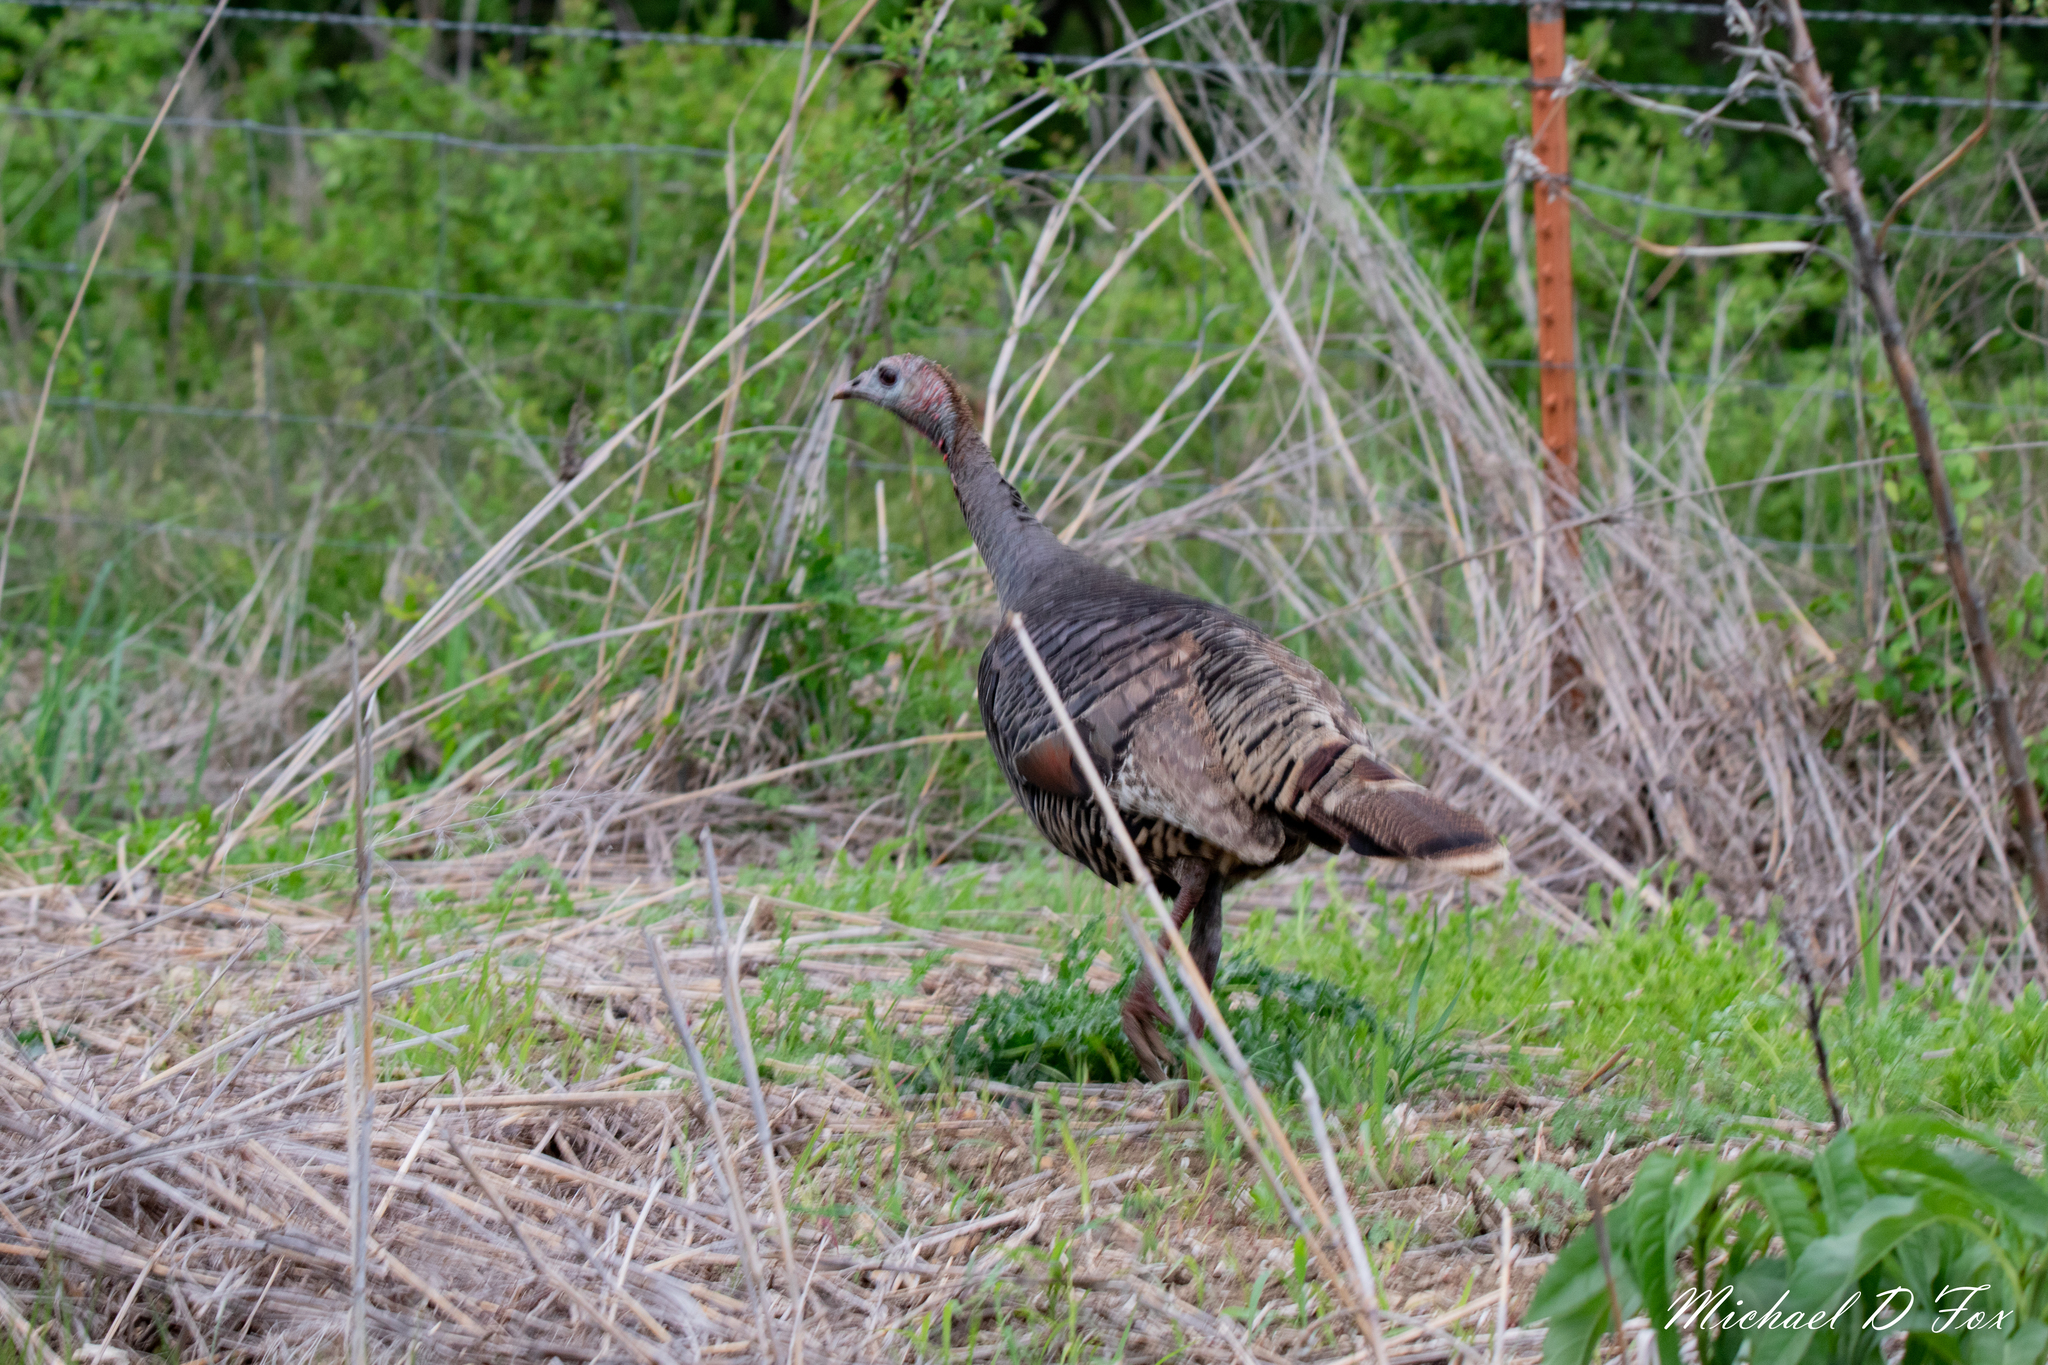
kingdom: Animalia
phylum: Chordata
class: Aves
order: Galliformes
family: Phasianidae
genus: Meleagris
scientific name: Meleagris gallopavo
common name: Wild turkey
